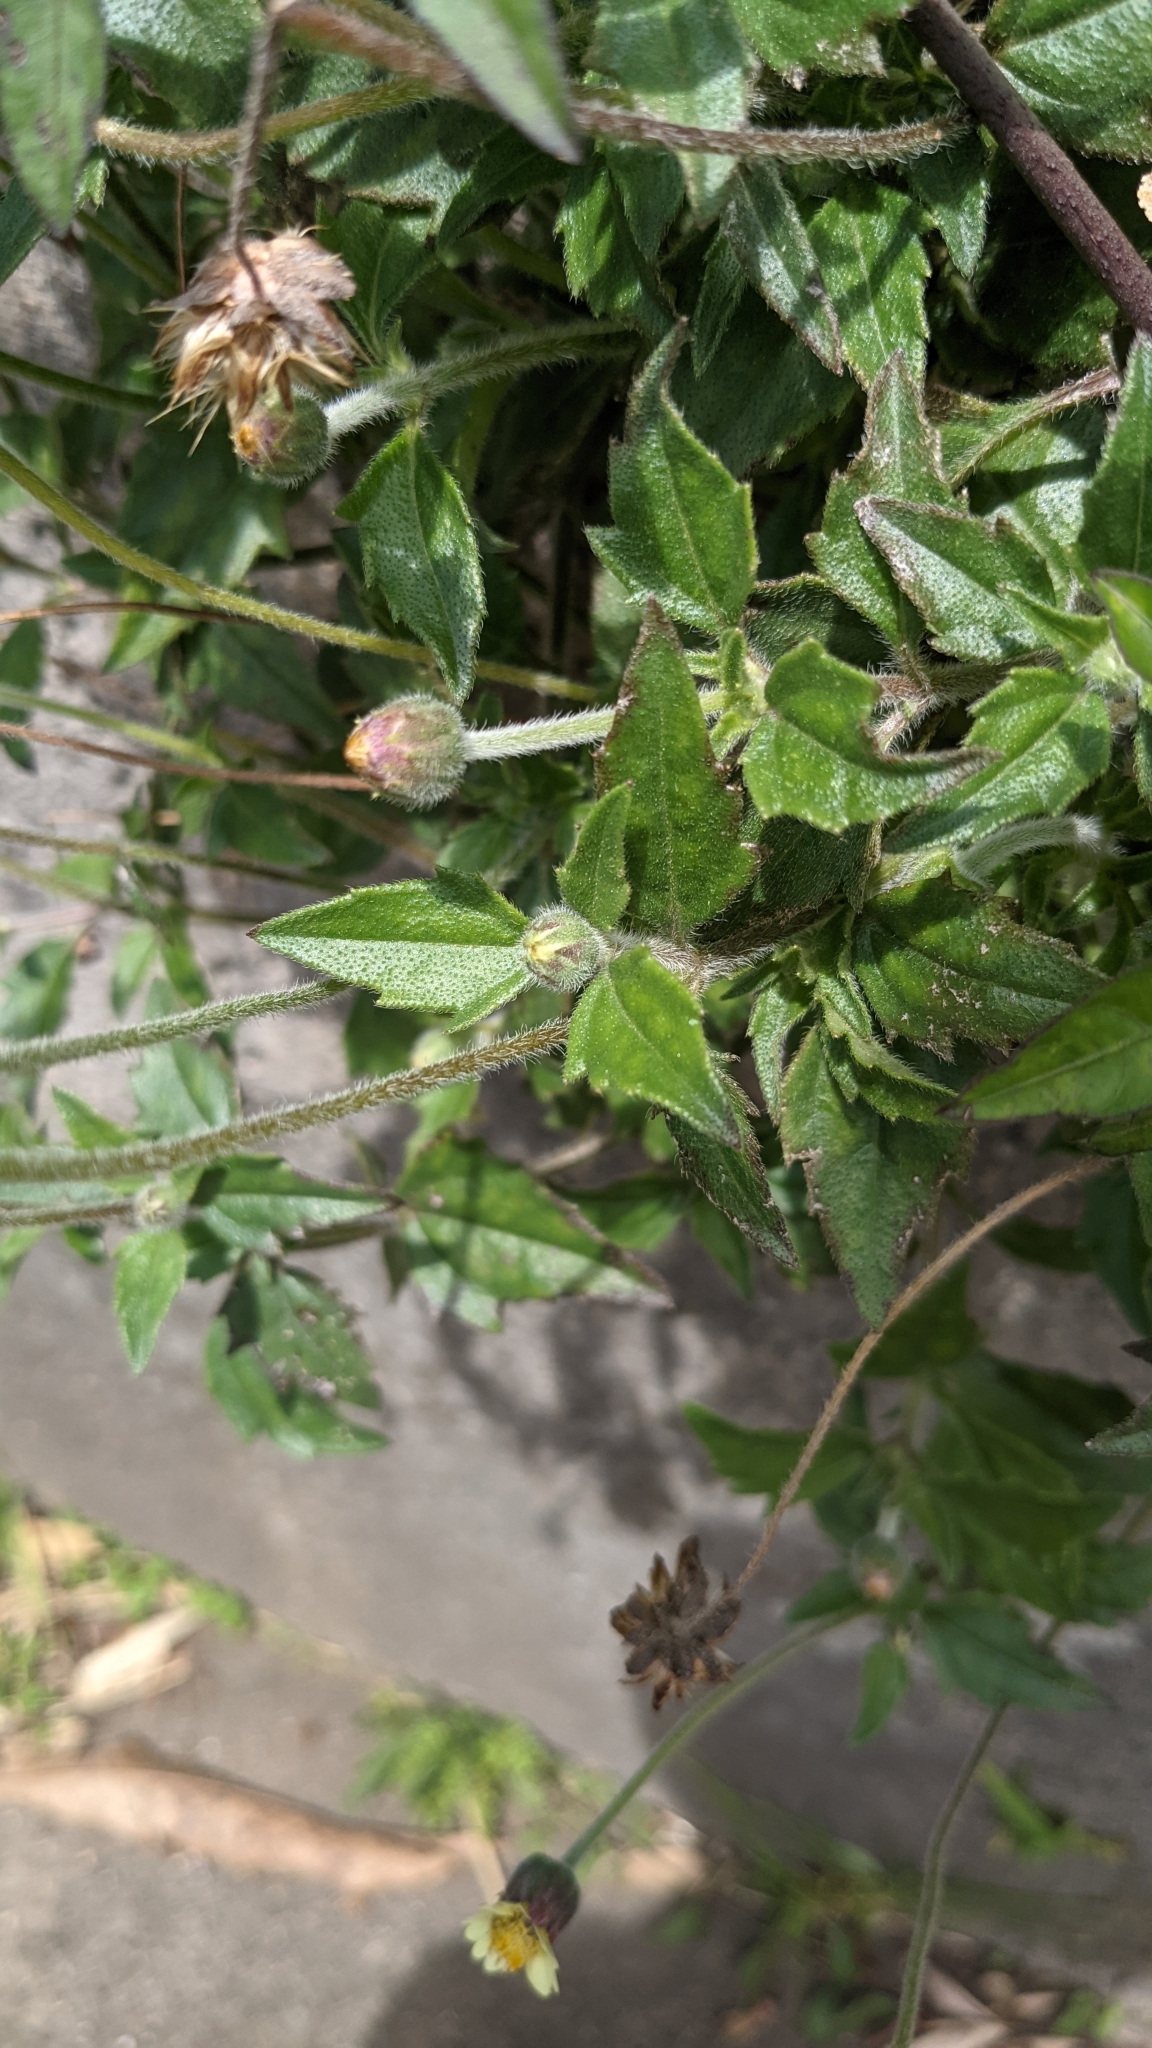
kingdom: Plantae
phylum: Tracheophyta
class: Magnoliopsida
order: Asterales
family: Asteraceae
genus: Tridax
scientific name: Tridax procumbens
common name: Coatbuttons
